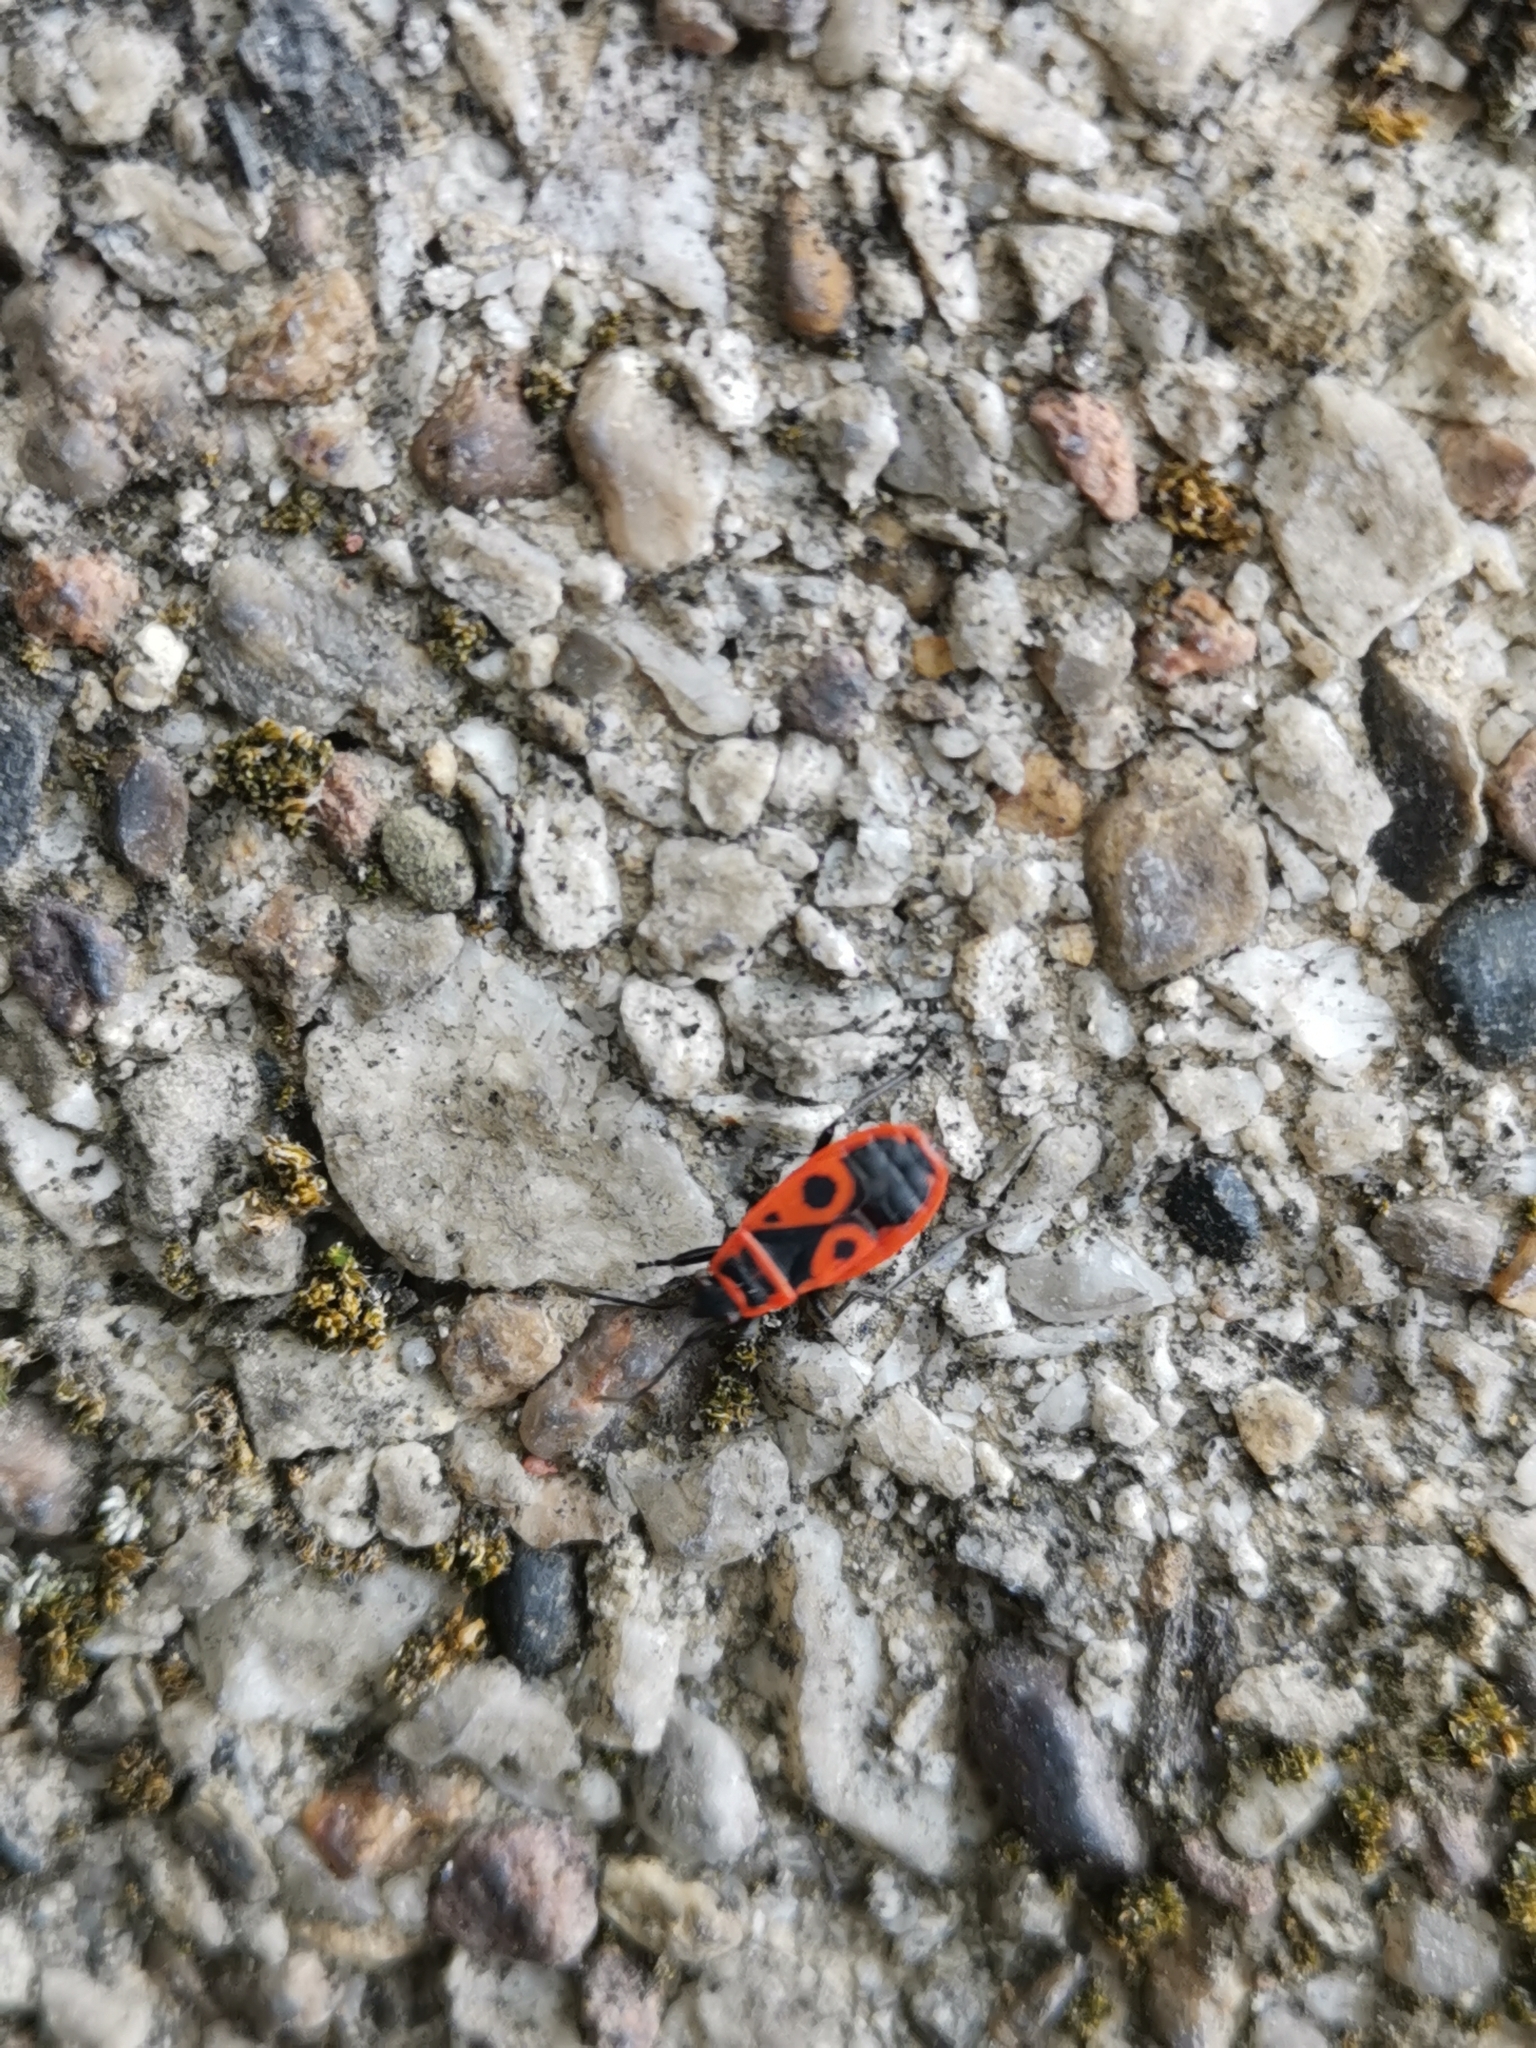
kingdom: Animalia
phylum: Arthropoda
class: Insecta
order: Hemiptera
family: Pyrrhocoridae
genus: Pyrrhocoris
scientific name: Pyrrhocoris apterus
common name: Firebug
